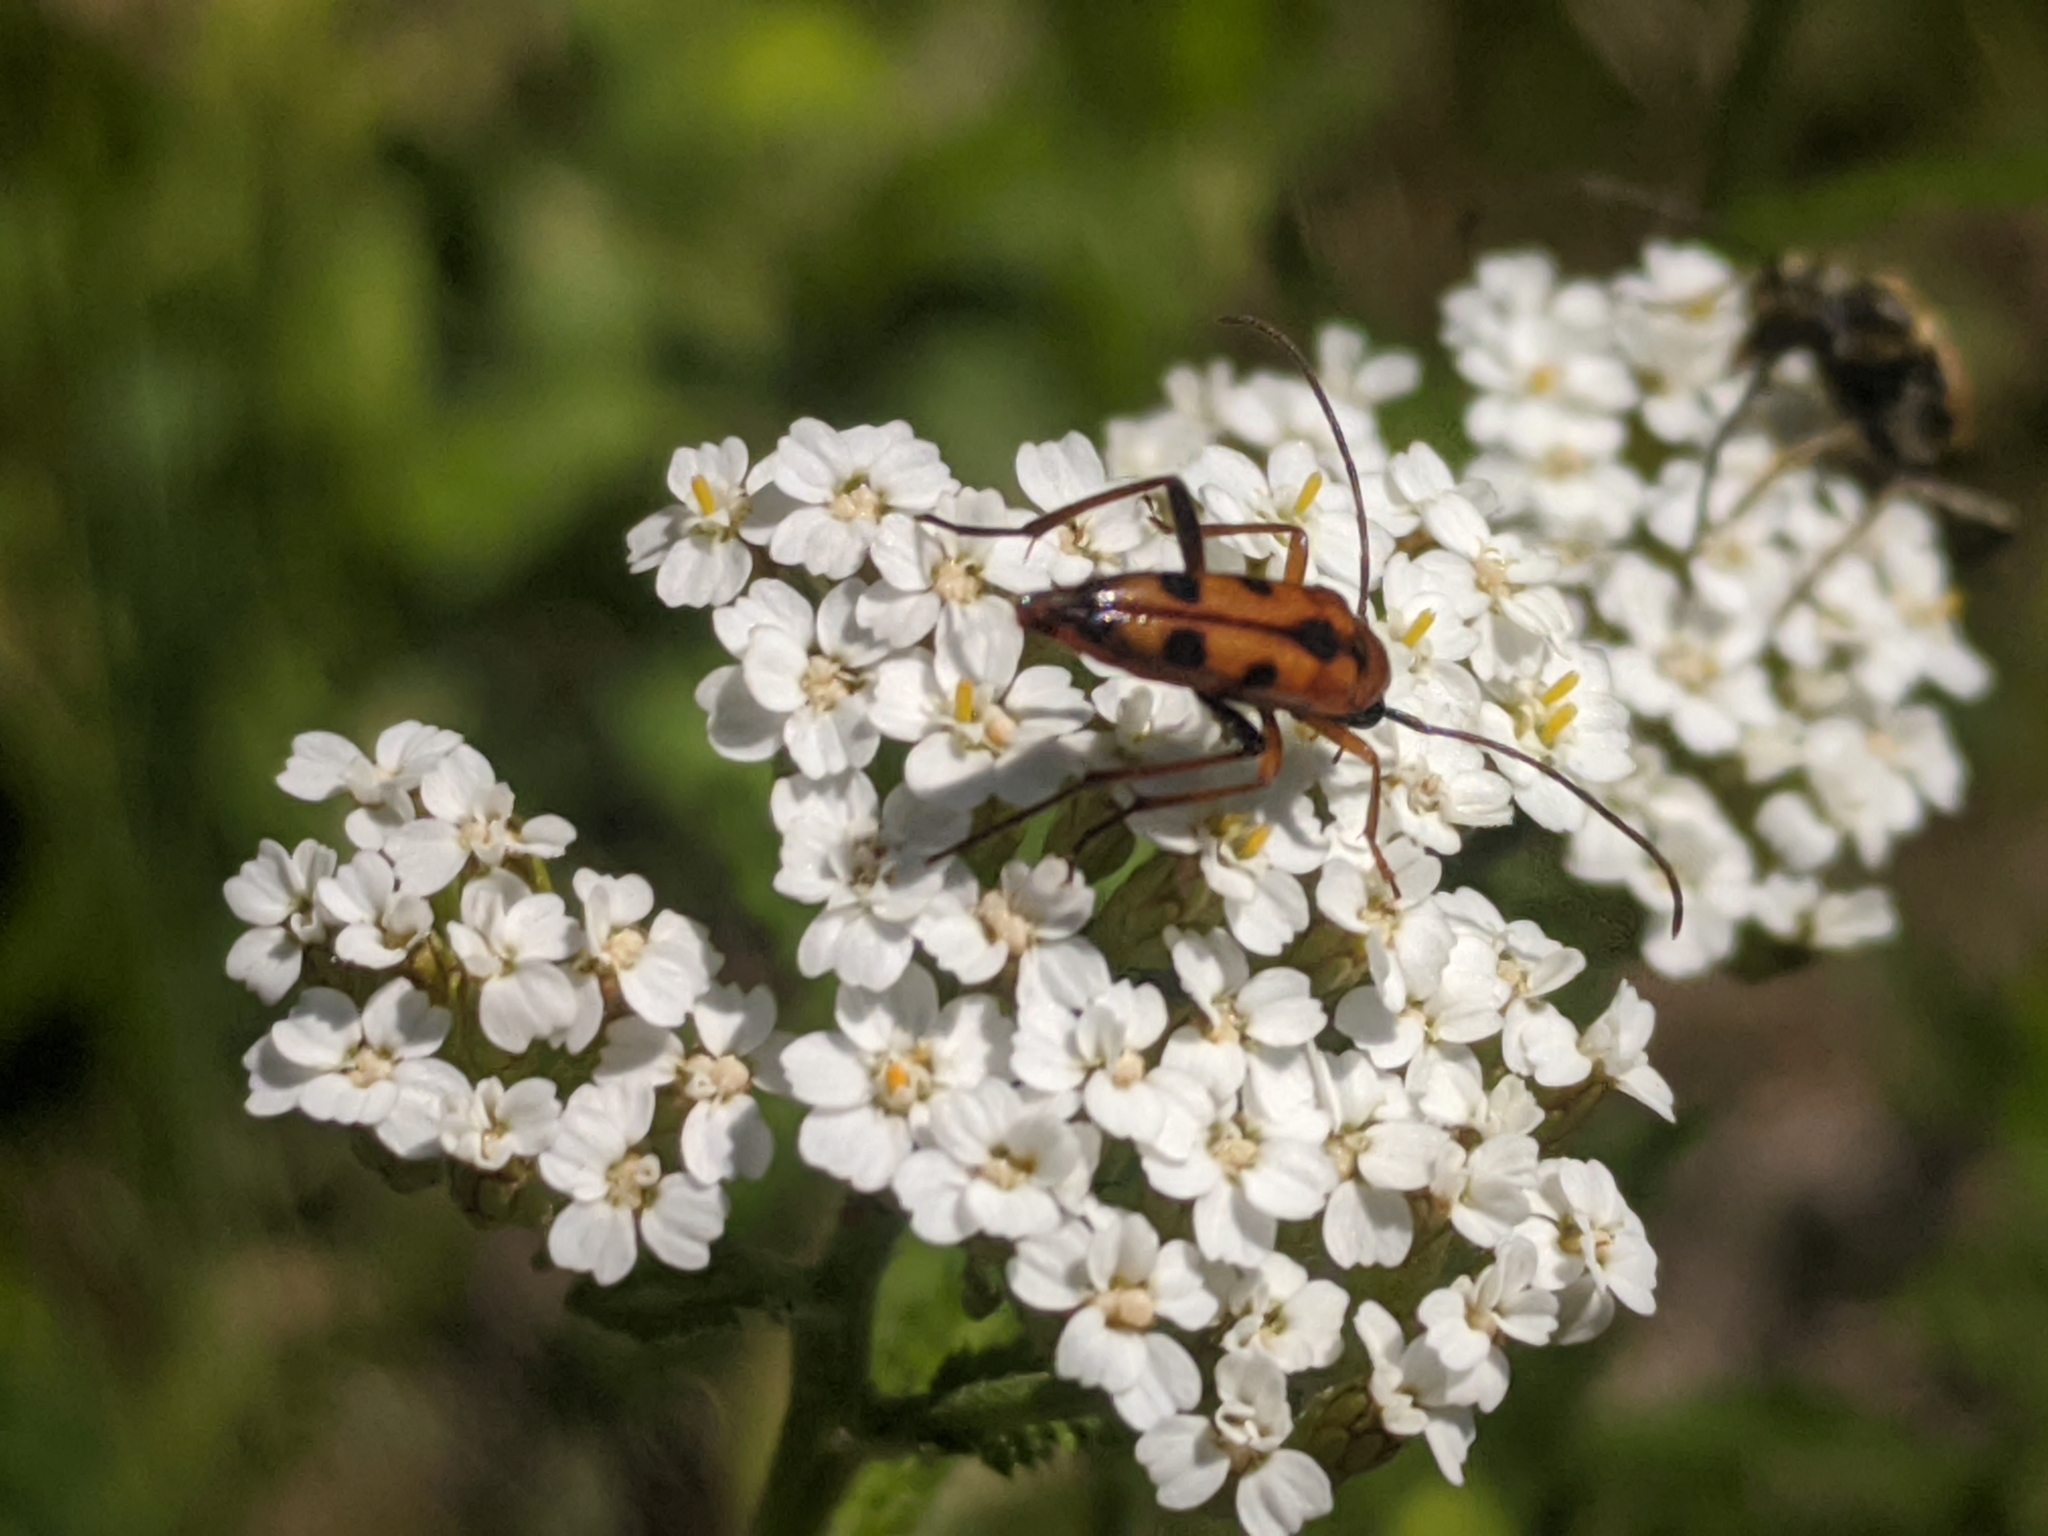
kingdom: Animalia
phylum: Arthropoda
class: Insecta
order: Coleoptera
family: Cerambycidae
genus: Stenurella
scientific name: Stenurella septempunctata
